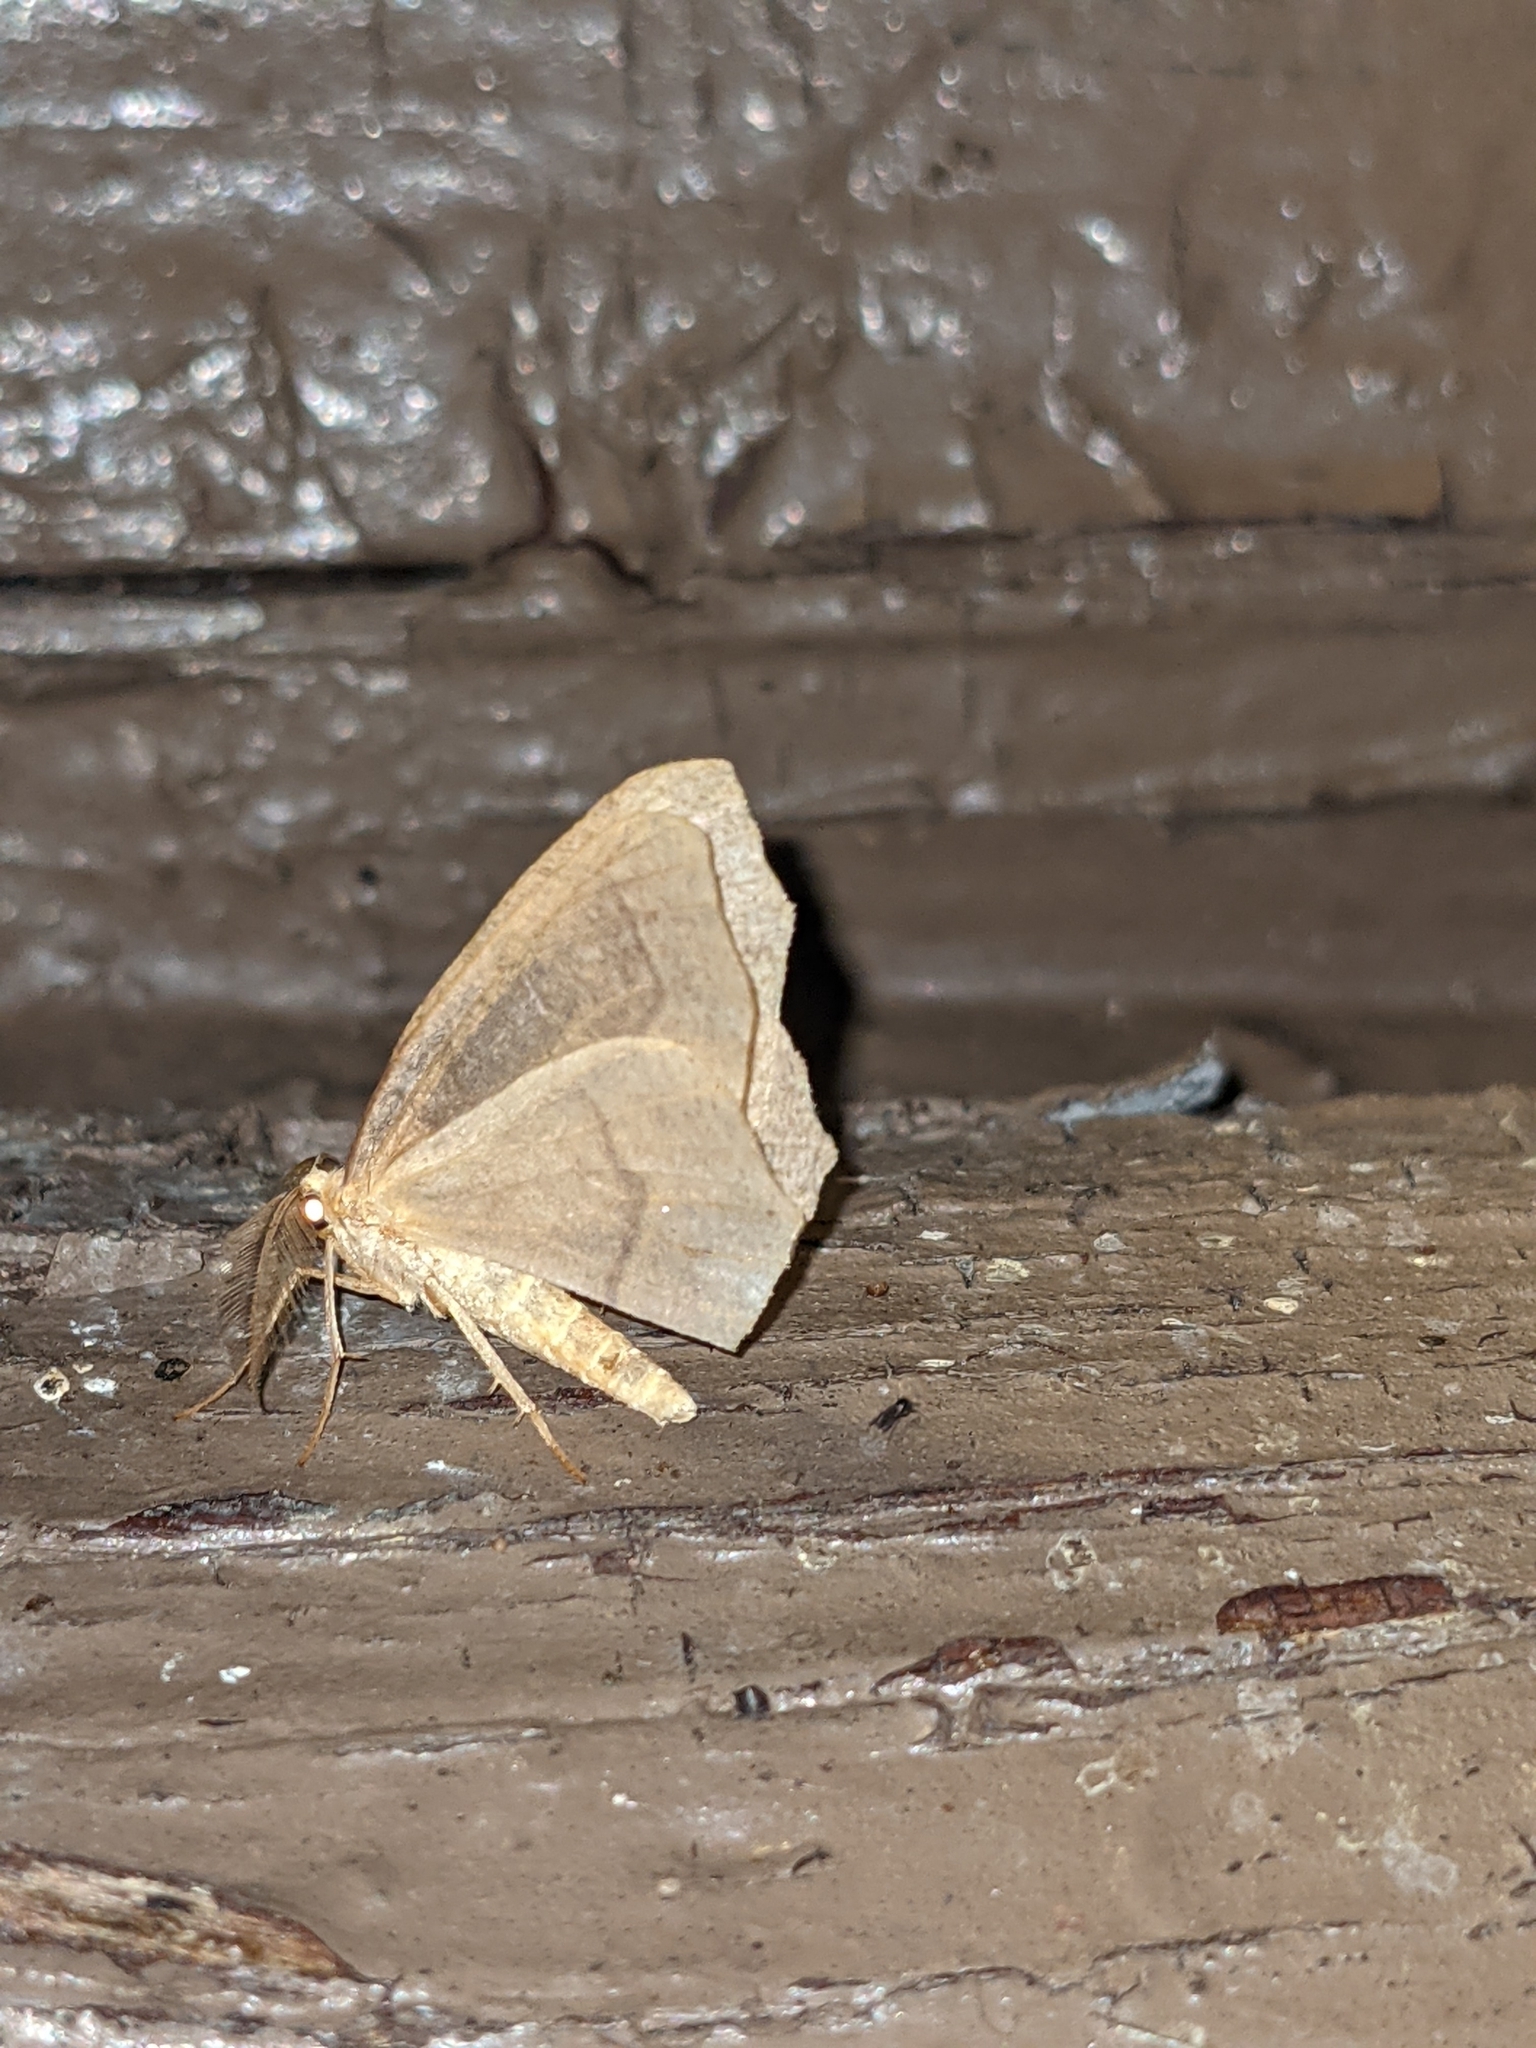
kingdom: Animalia
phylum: Arthropoda
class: Insecta
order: Lepidoptera
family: Geometridae
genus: Lambdina
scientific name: Lambdina fiscellaria
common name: Hemlock looper
